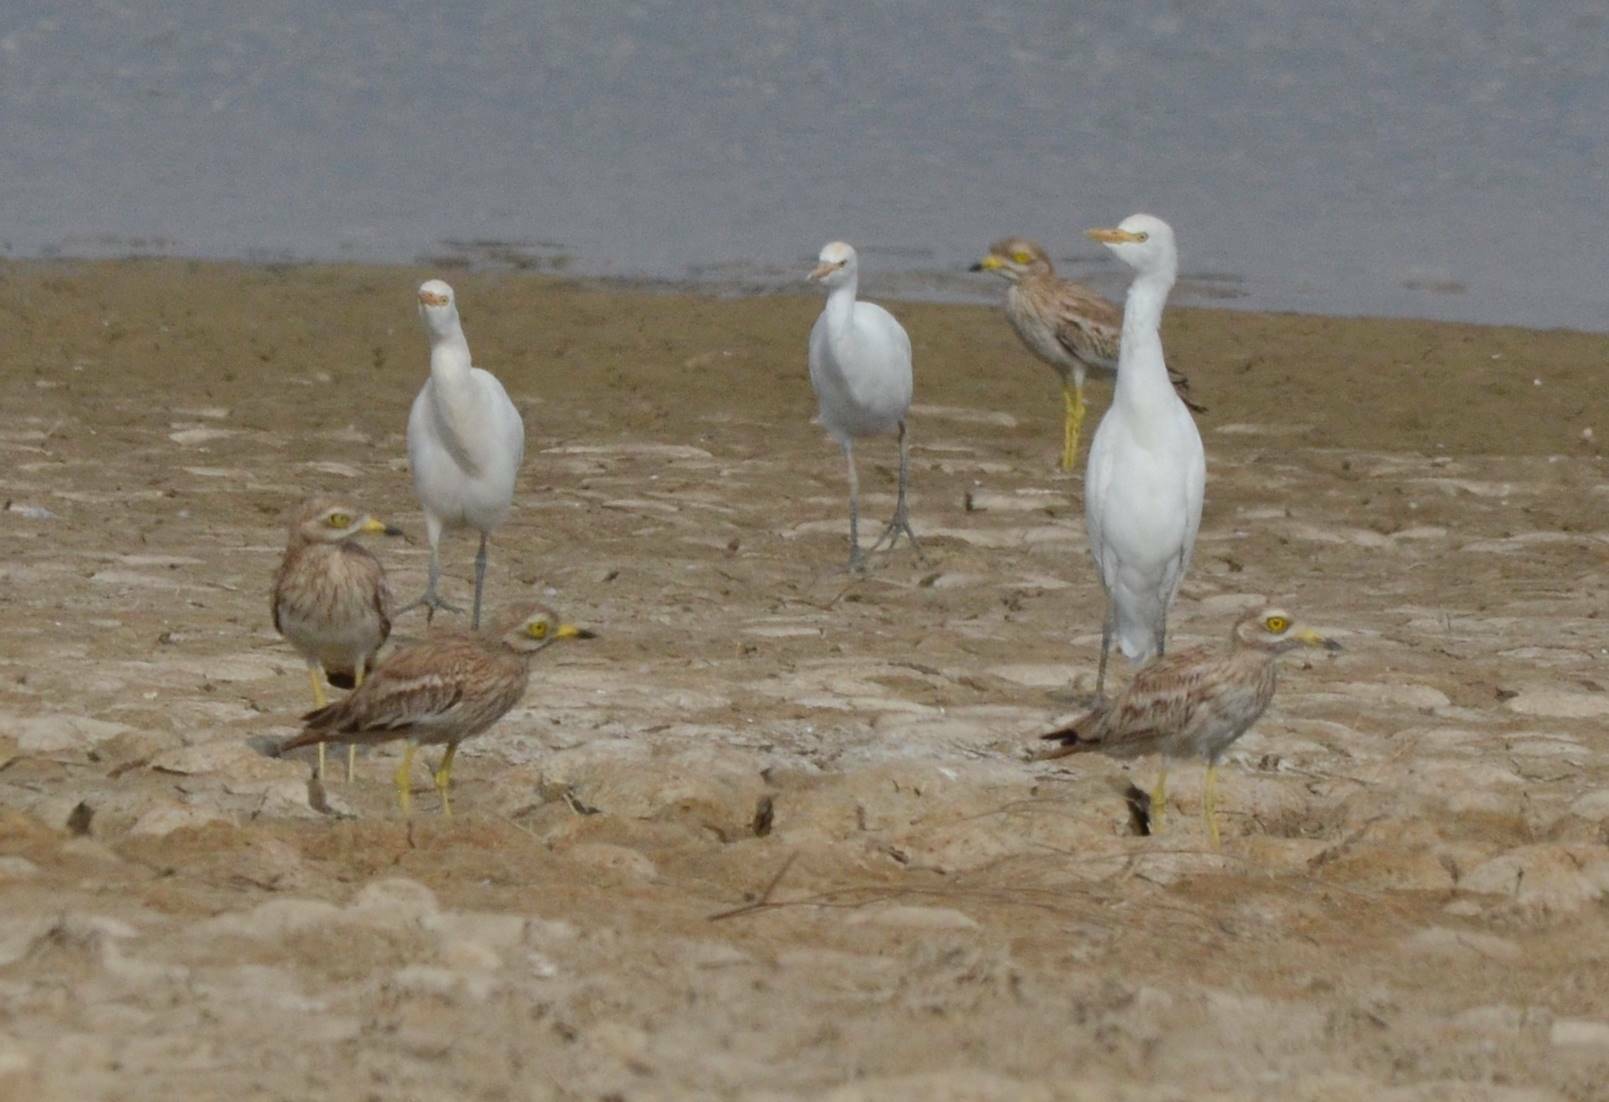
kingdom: Animalia
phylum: Chordata
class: Aves
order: Charadriiformes
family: Burhinidae
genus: Burhinus
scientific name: Burhinus oedicnemus
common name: Eurasian stone-curlew
